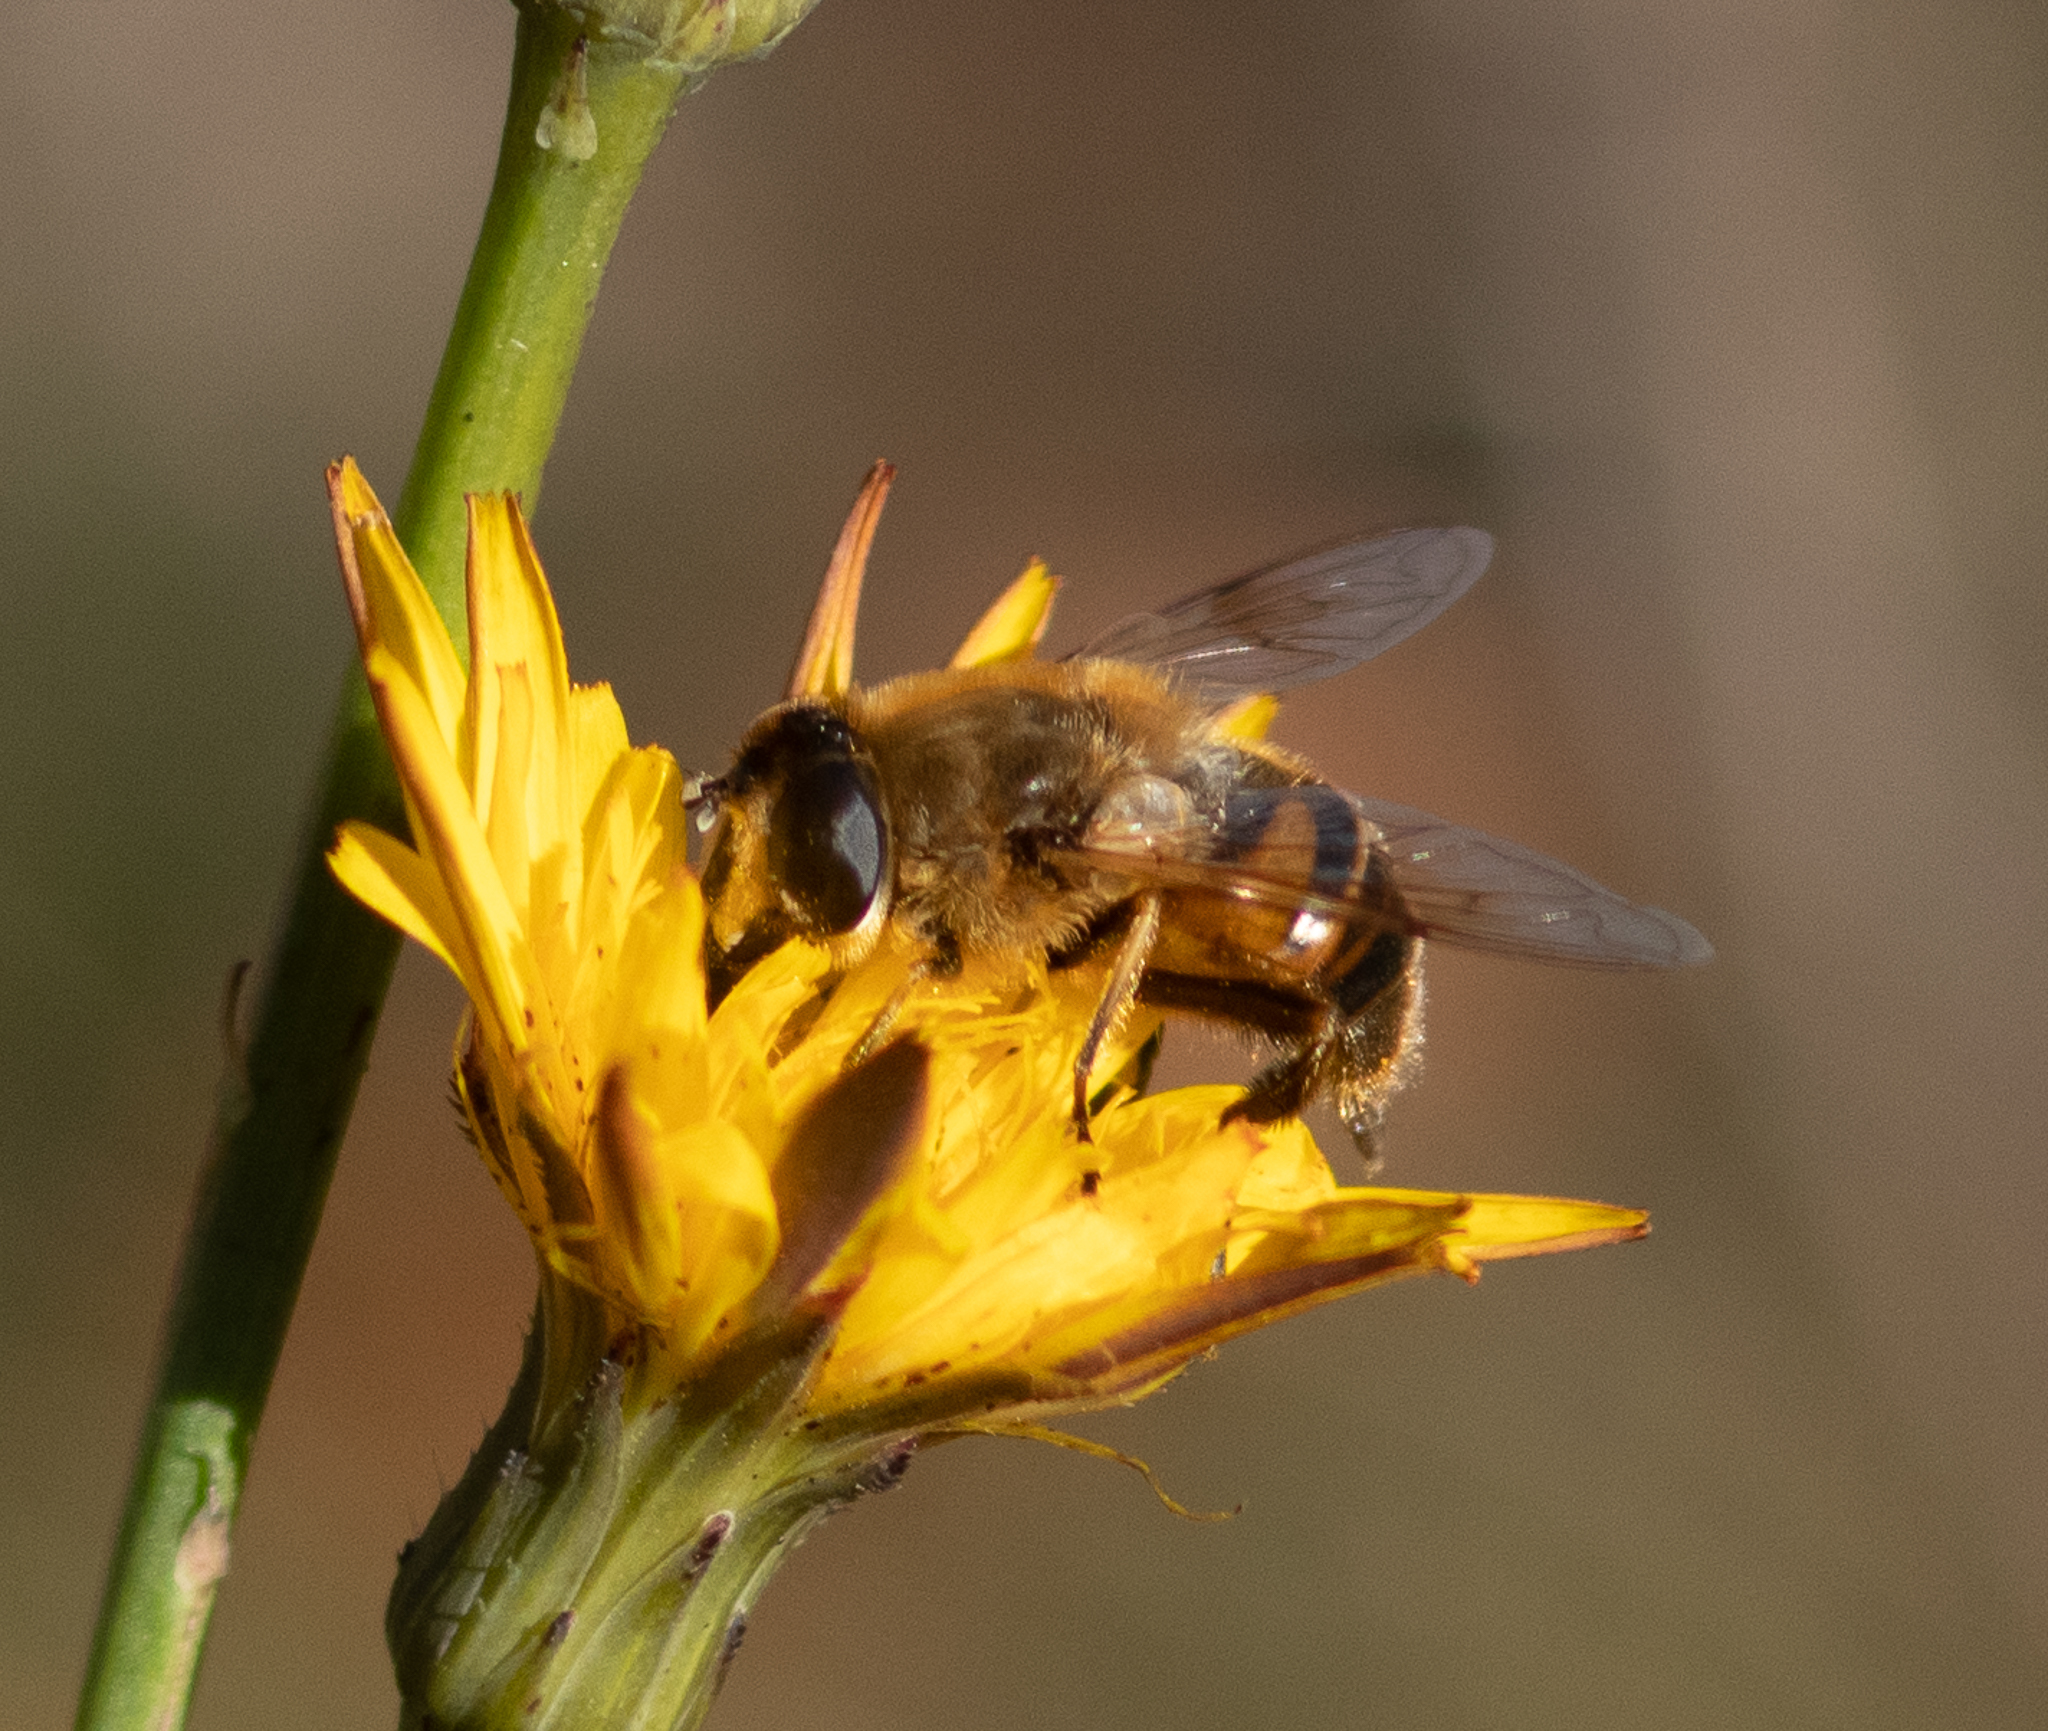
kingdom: Animalia
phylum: Arthropoda
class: Insecta
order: Diptera
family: Syrphidae
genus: Eristalis
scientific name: Eristalis tenax
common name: Drone fly
